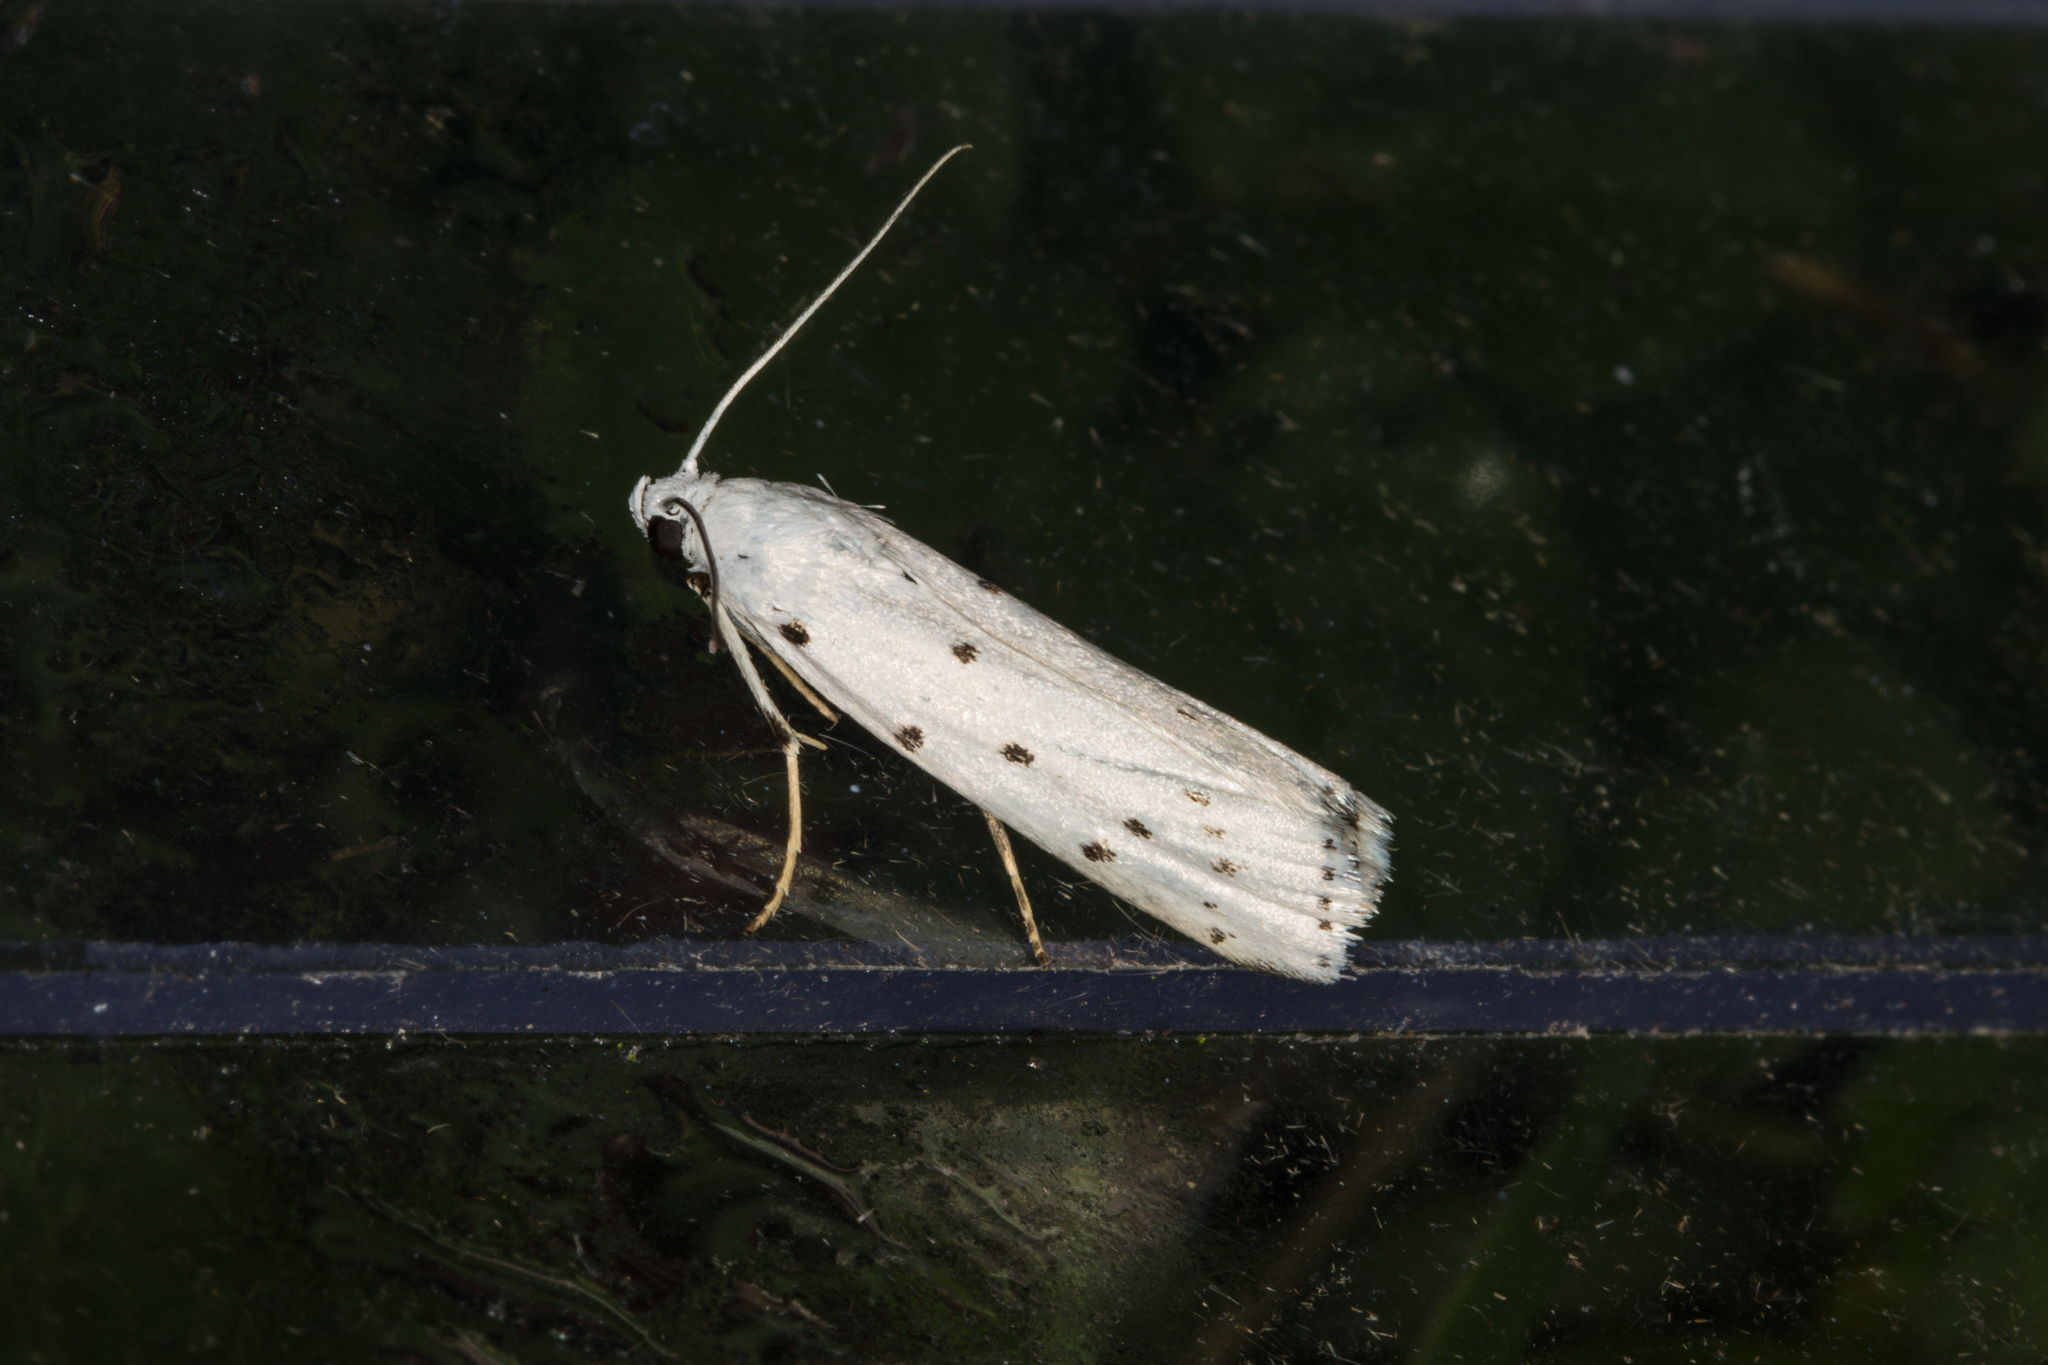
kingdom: Animalia
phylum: Arthropoda
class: Insecta
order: Lepidoptera
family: Pyralidae
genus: Myelois
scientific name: Myelois circumvoluta
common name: Thistle ermine
